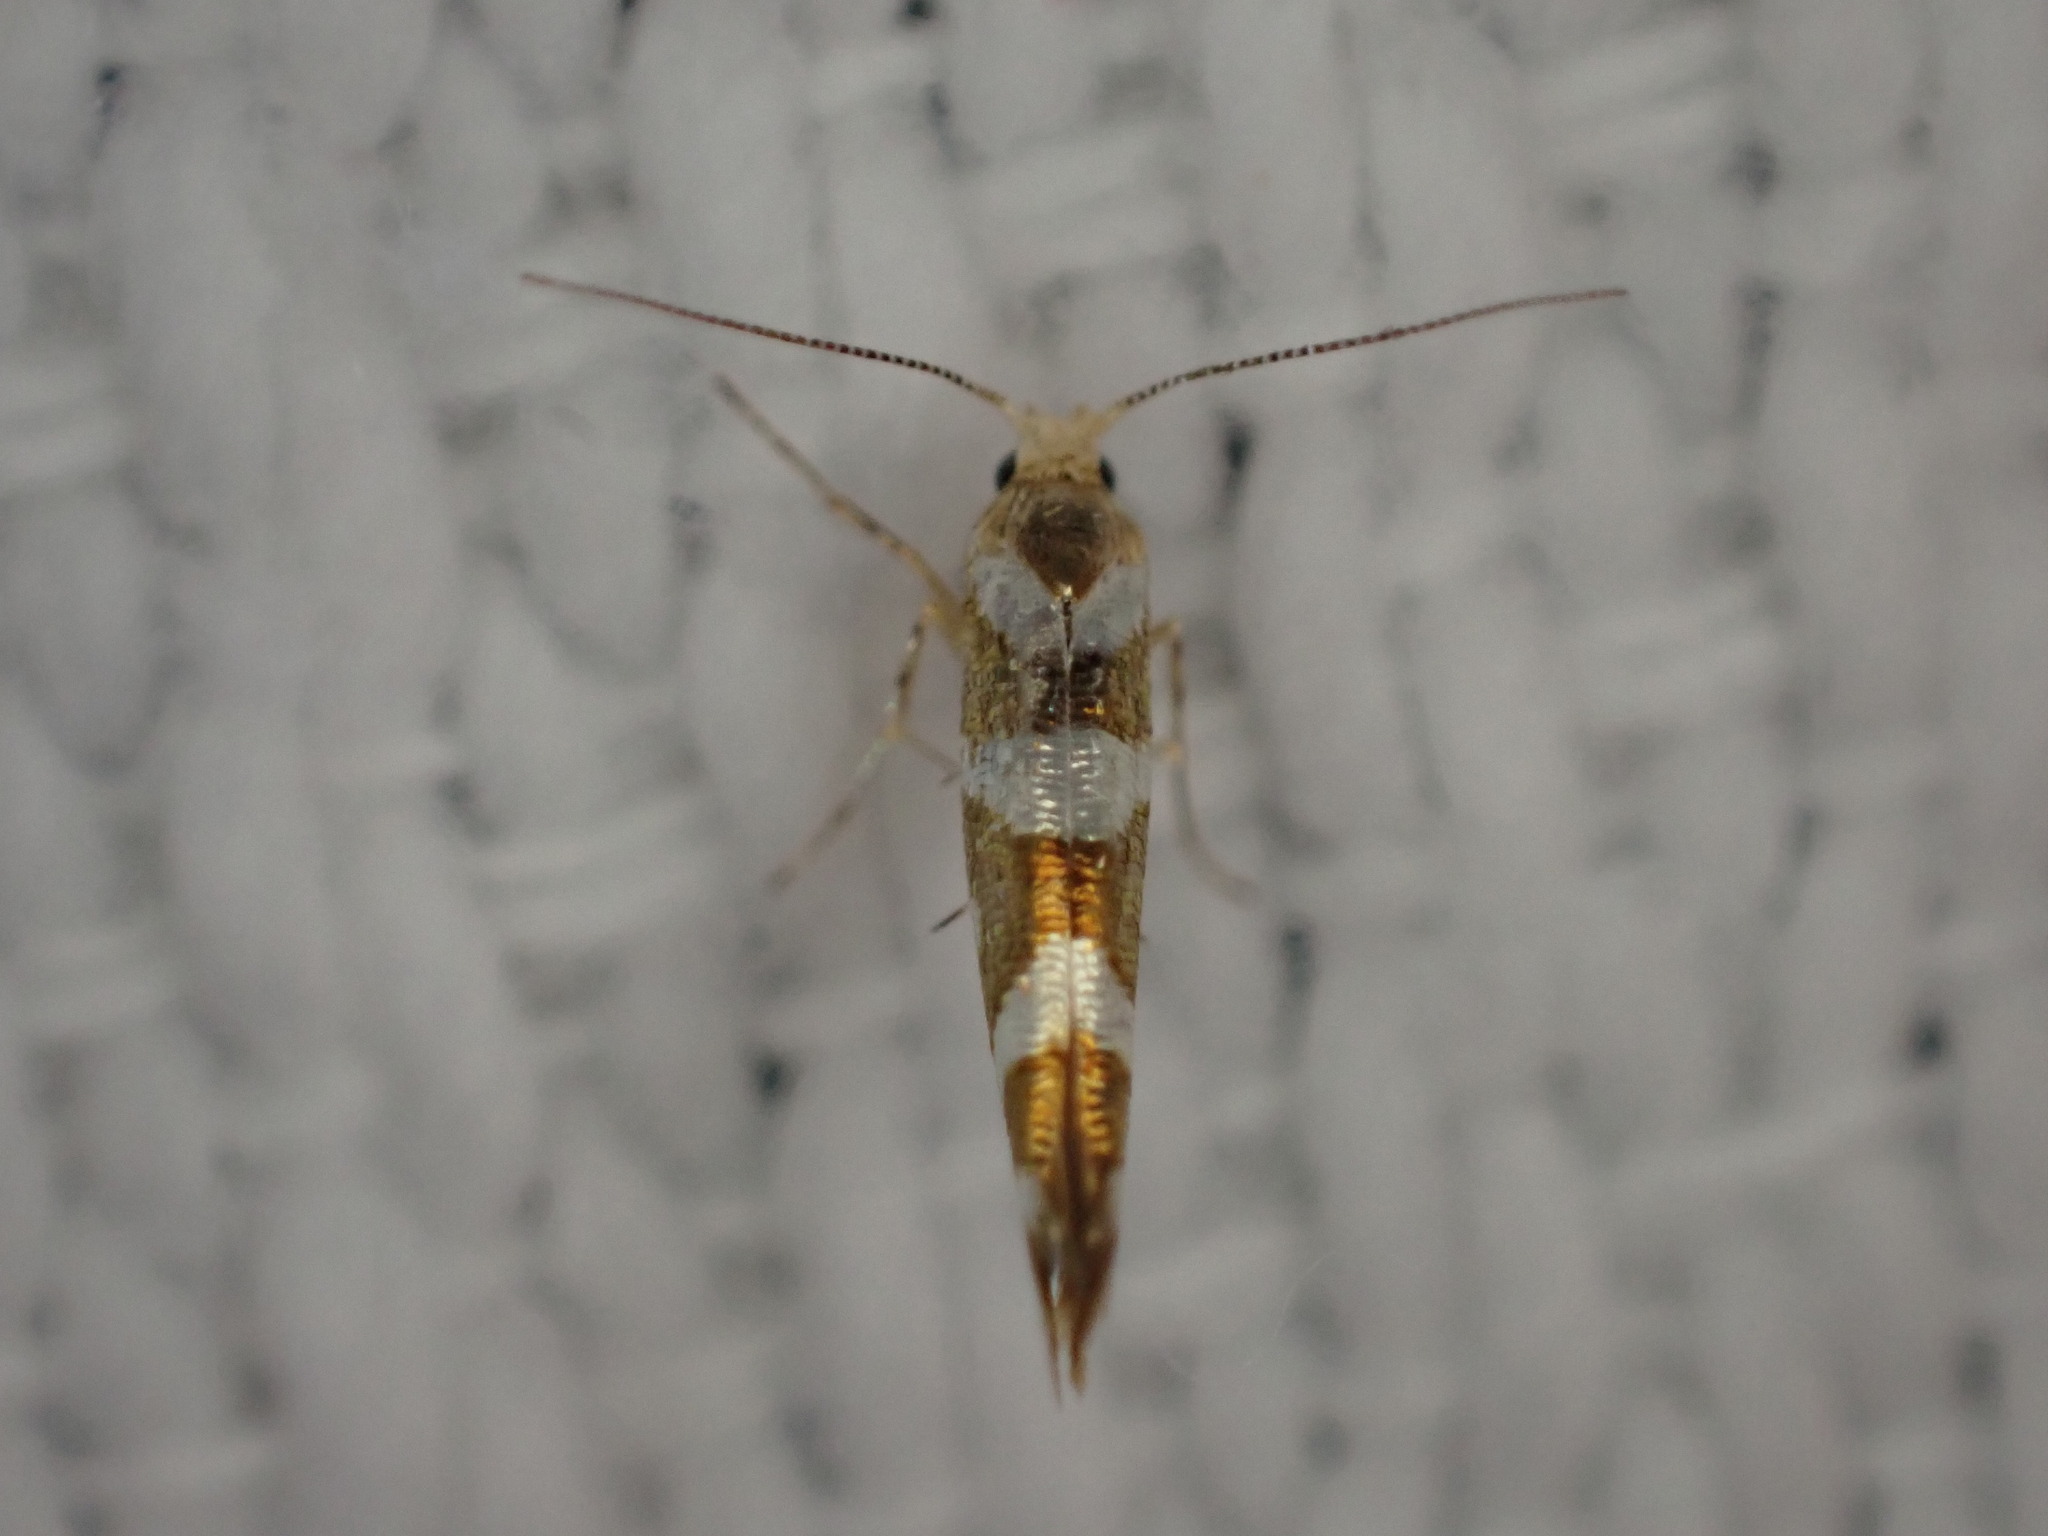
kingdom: Animalia
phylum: Arthropoda
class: Insecta
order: Lepidoptera
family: Argyresthiidae
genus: Argyresthia
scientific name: Argyresthia goedartella
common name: Golden argent
